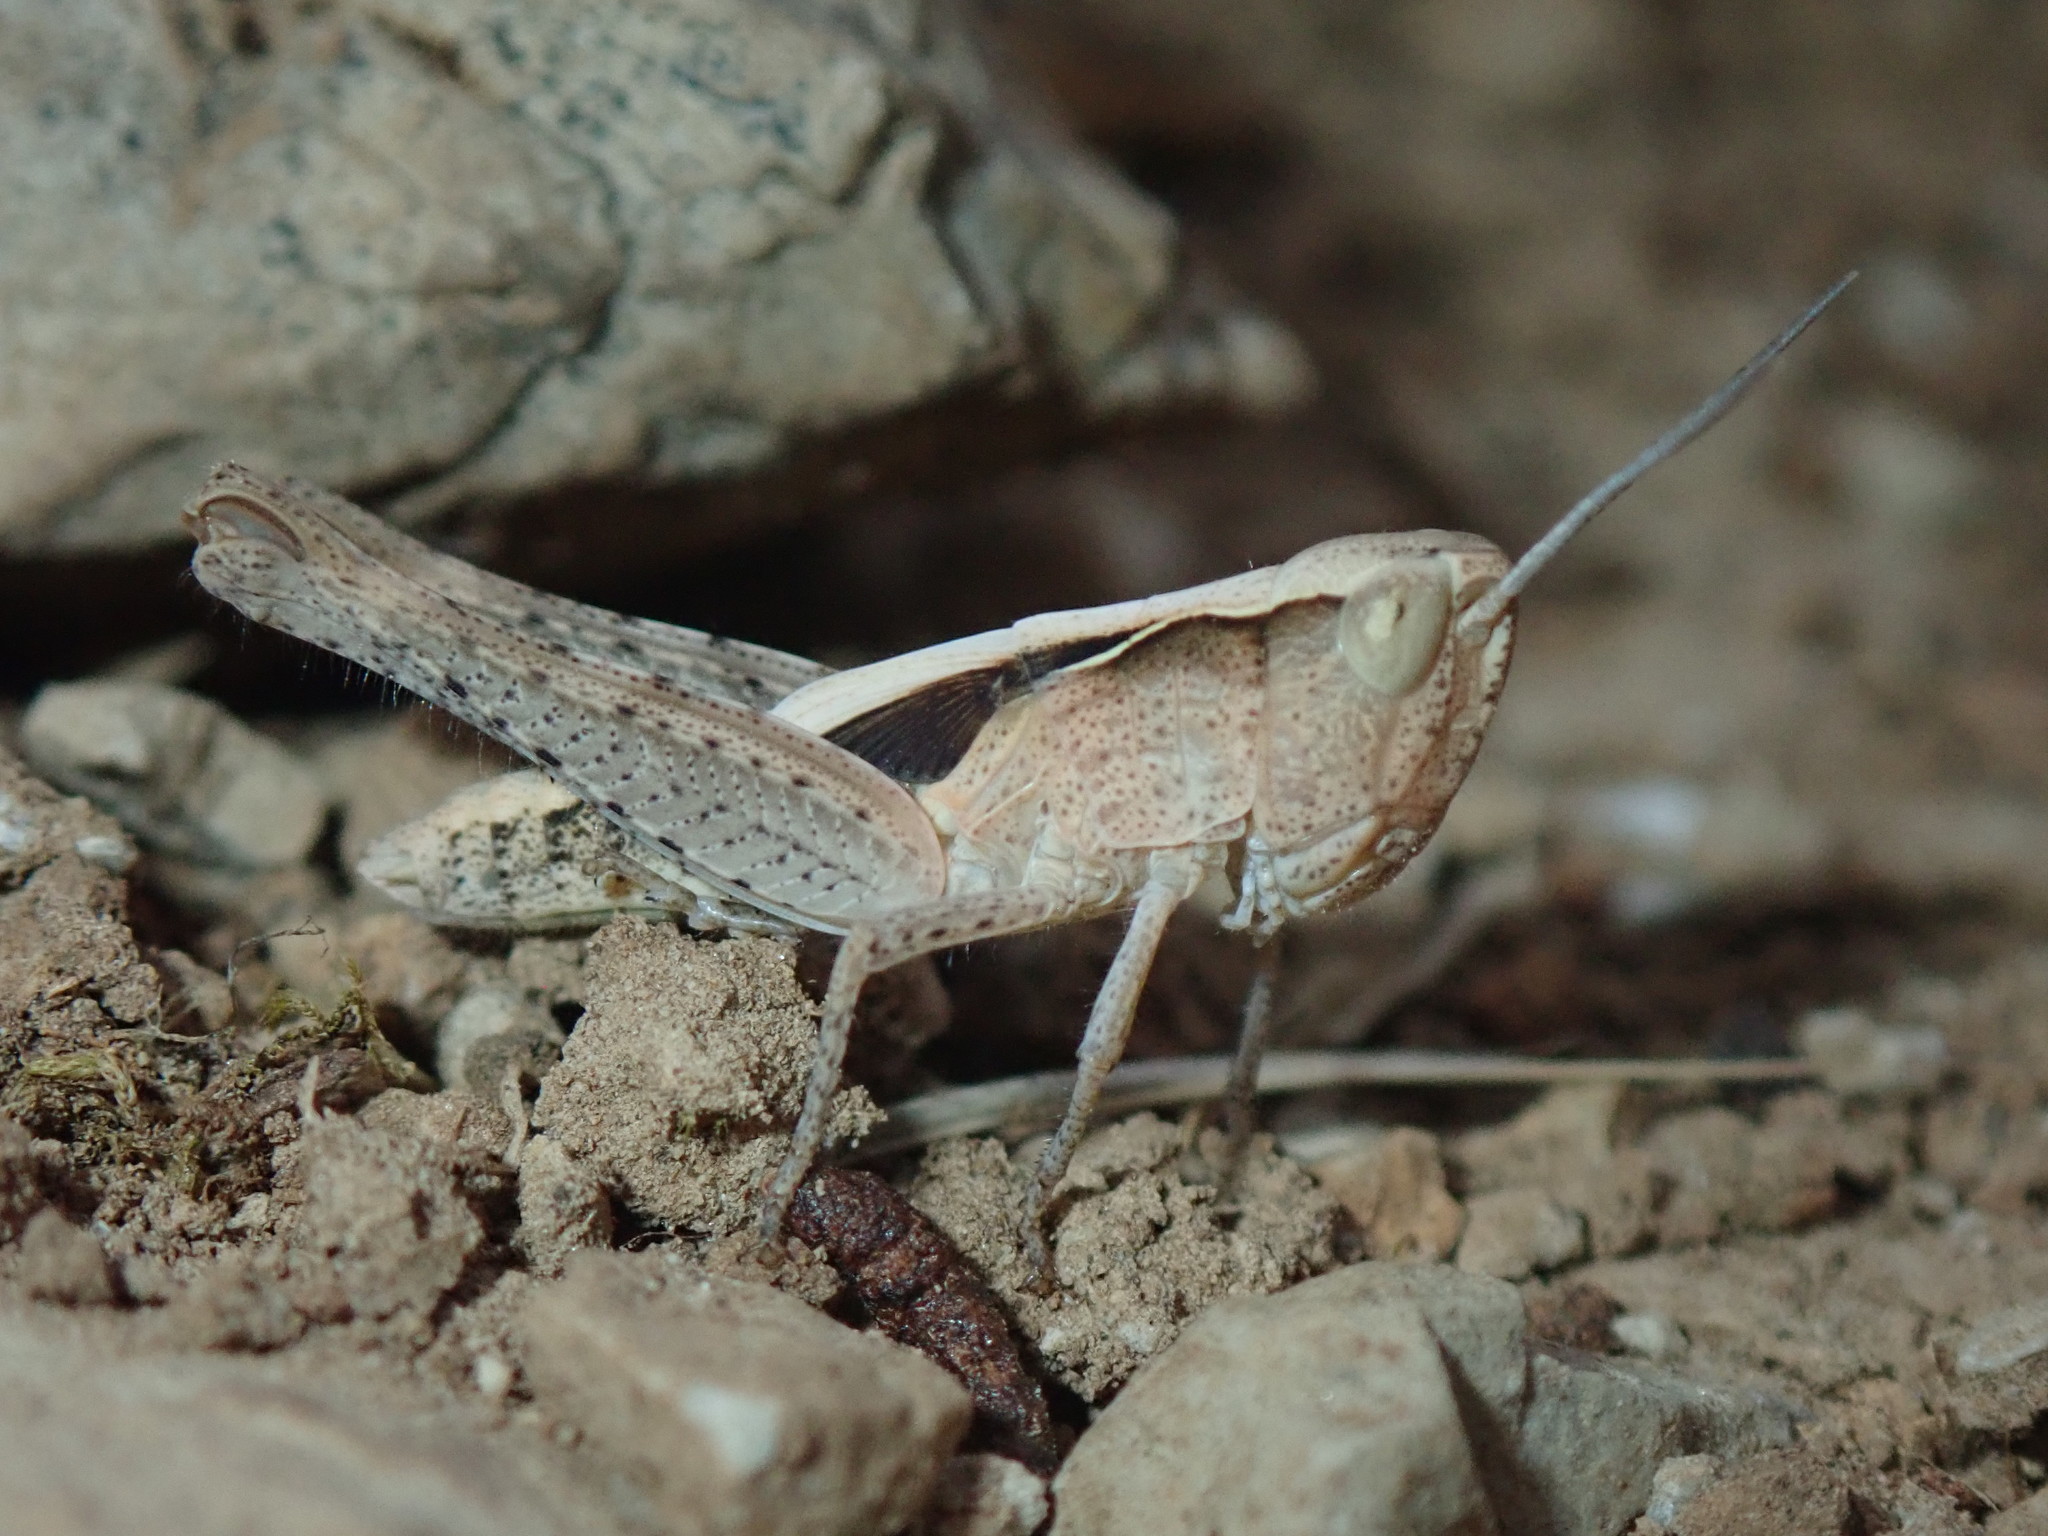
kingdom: Animalia
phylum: Arthropoda
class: Insecta
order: Orthoptera
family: Acrididae
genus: Chorthippus
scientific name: Chorthippus mollis
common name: Lesser field grasshopper
